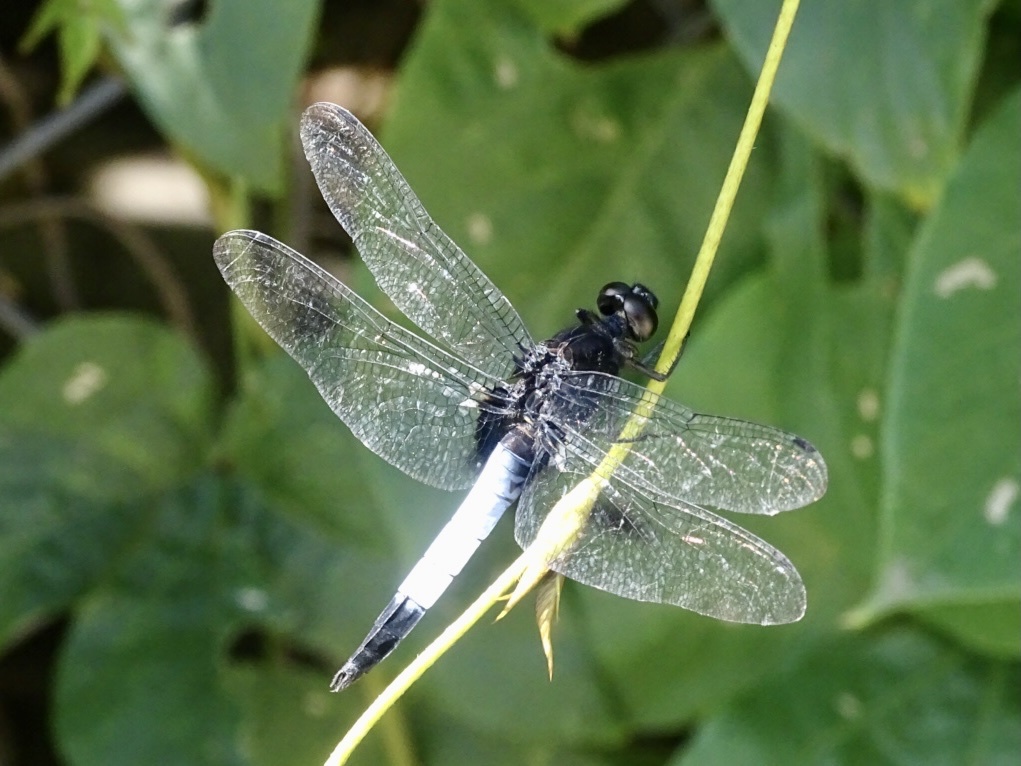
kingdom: Animalia
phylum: Arthropoda
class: Insecta
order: Odonata
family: Libellulidae
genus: Orthetrum
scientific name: Orthetrum triangulare
